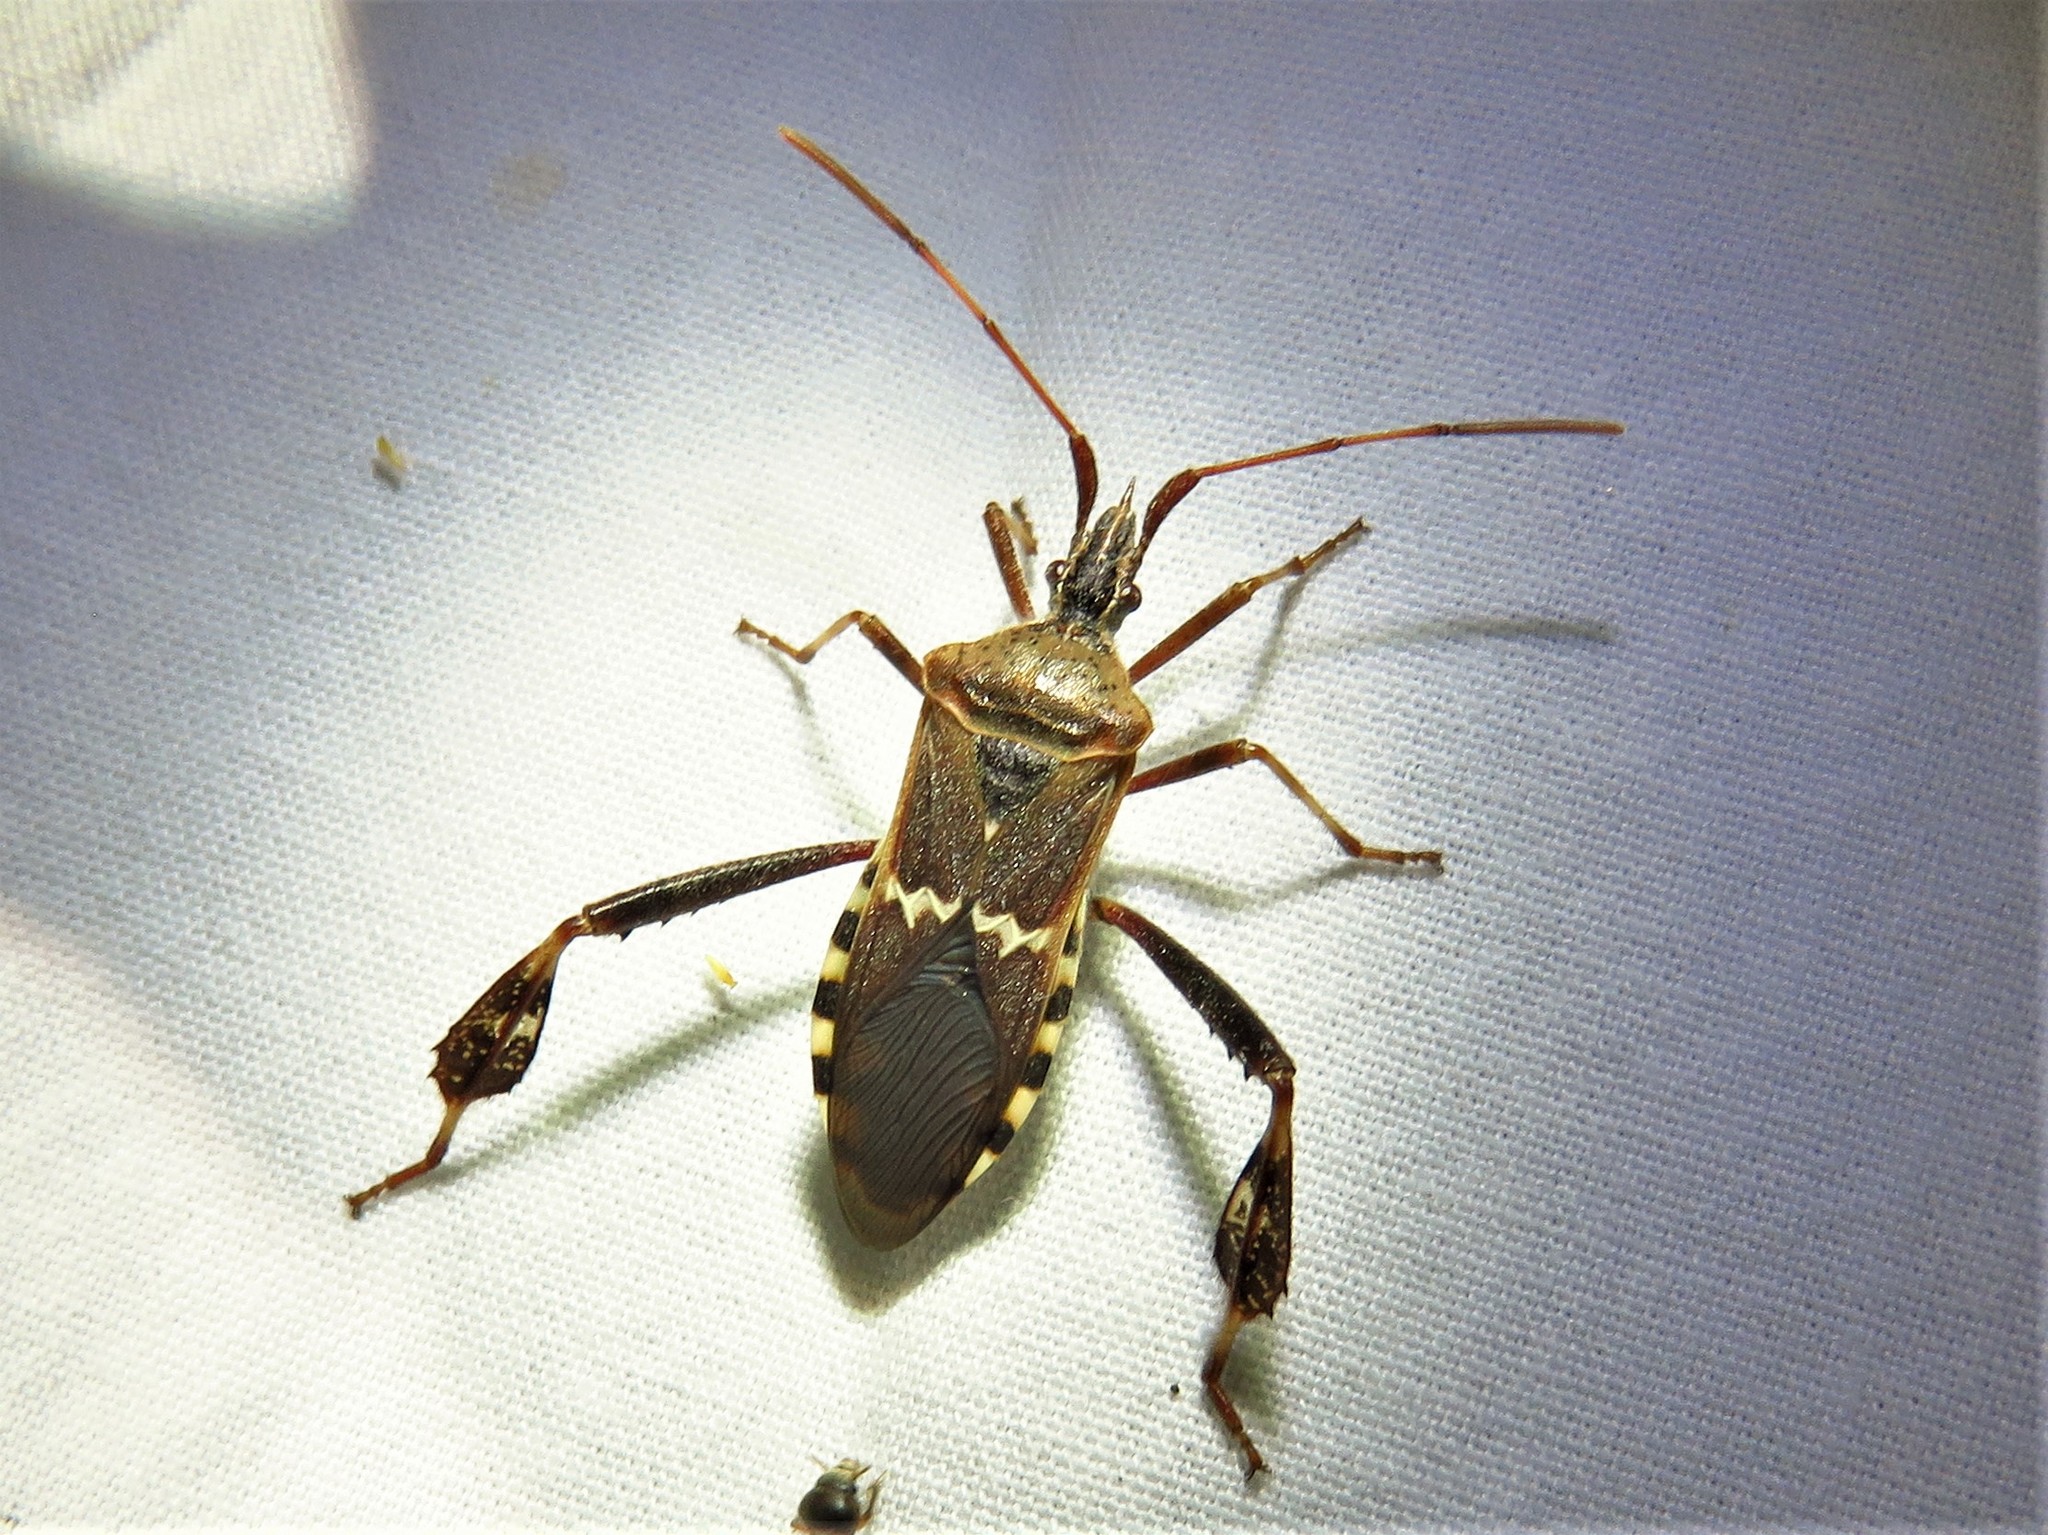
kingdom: Animalia
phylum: Arthropoda
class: Insecta
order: Hemiptera
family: Coreidae
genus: Leptoglossus
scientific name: Leptoglossus clypealis
